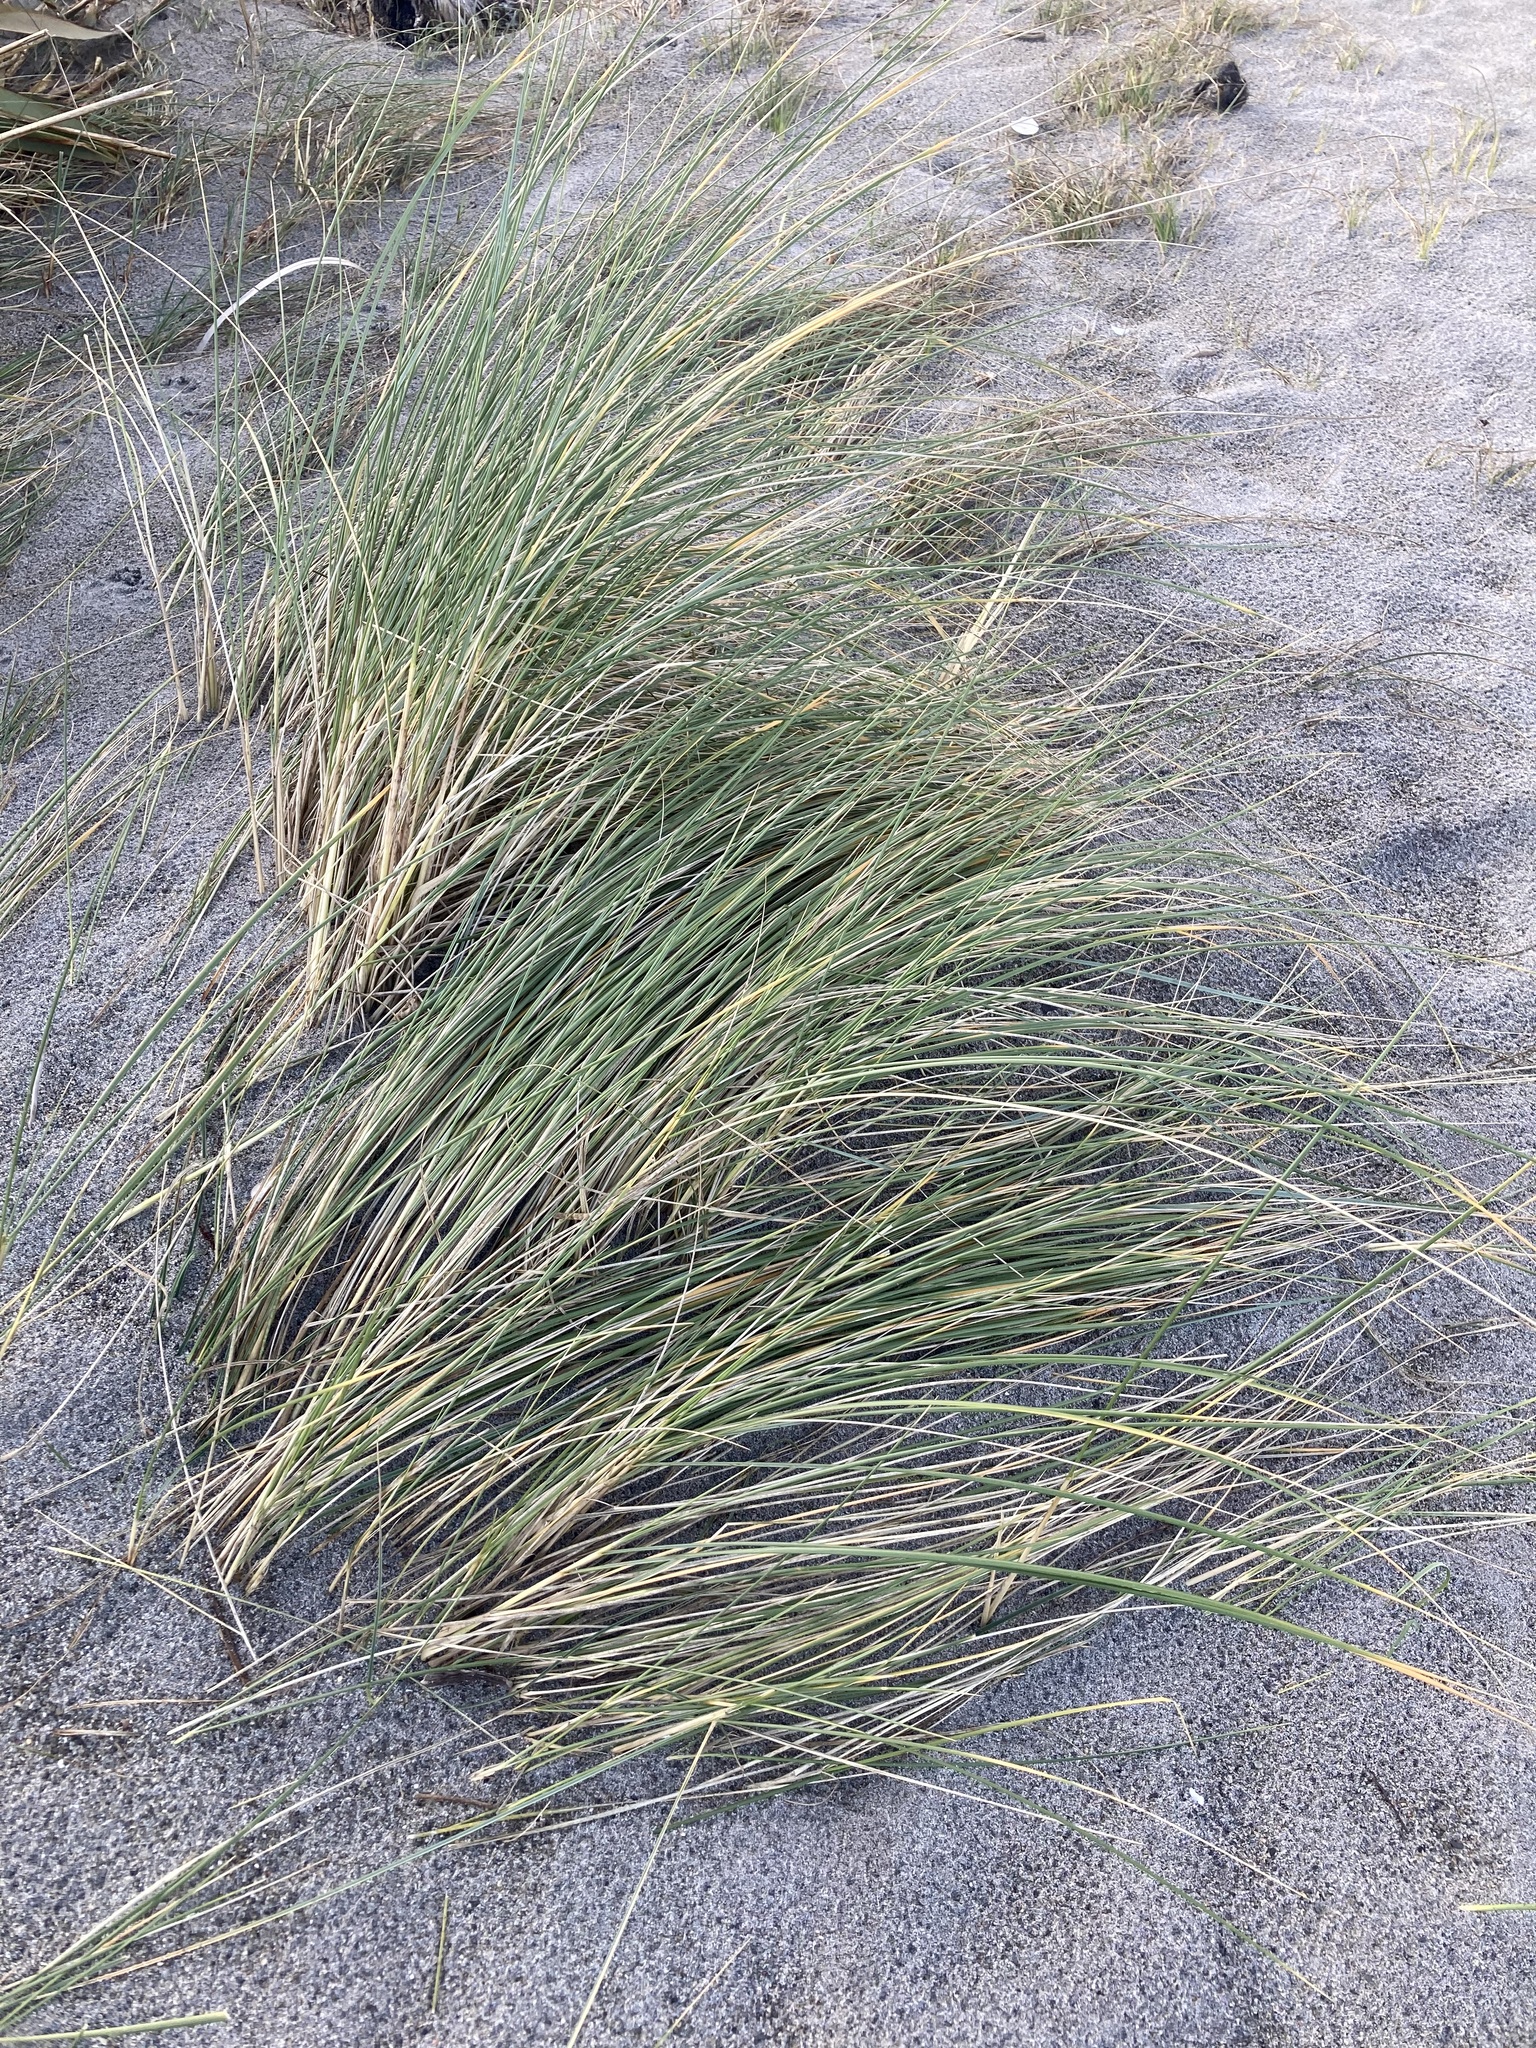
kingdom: Plantae
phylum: Tracheophyta
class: Liliopsida
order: Poales
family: Poaceae
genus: Calamagrostis
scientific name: Calamagrostis arenaria
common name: European beachgrass
